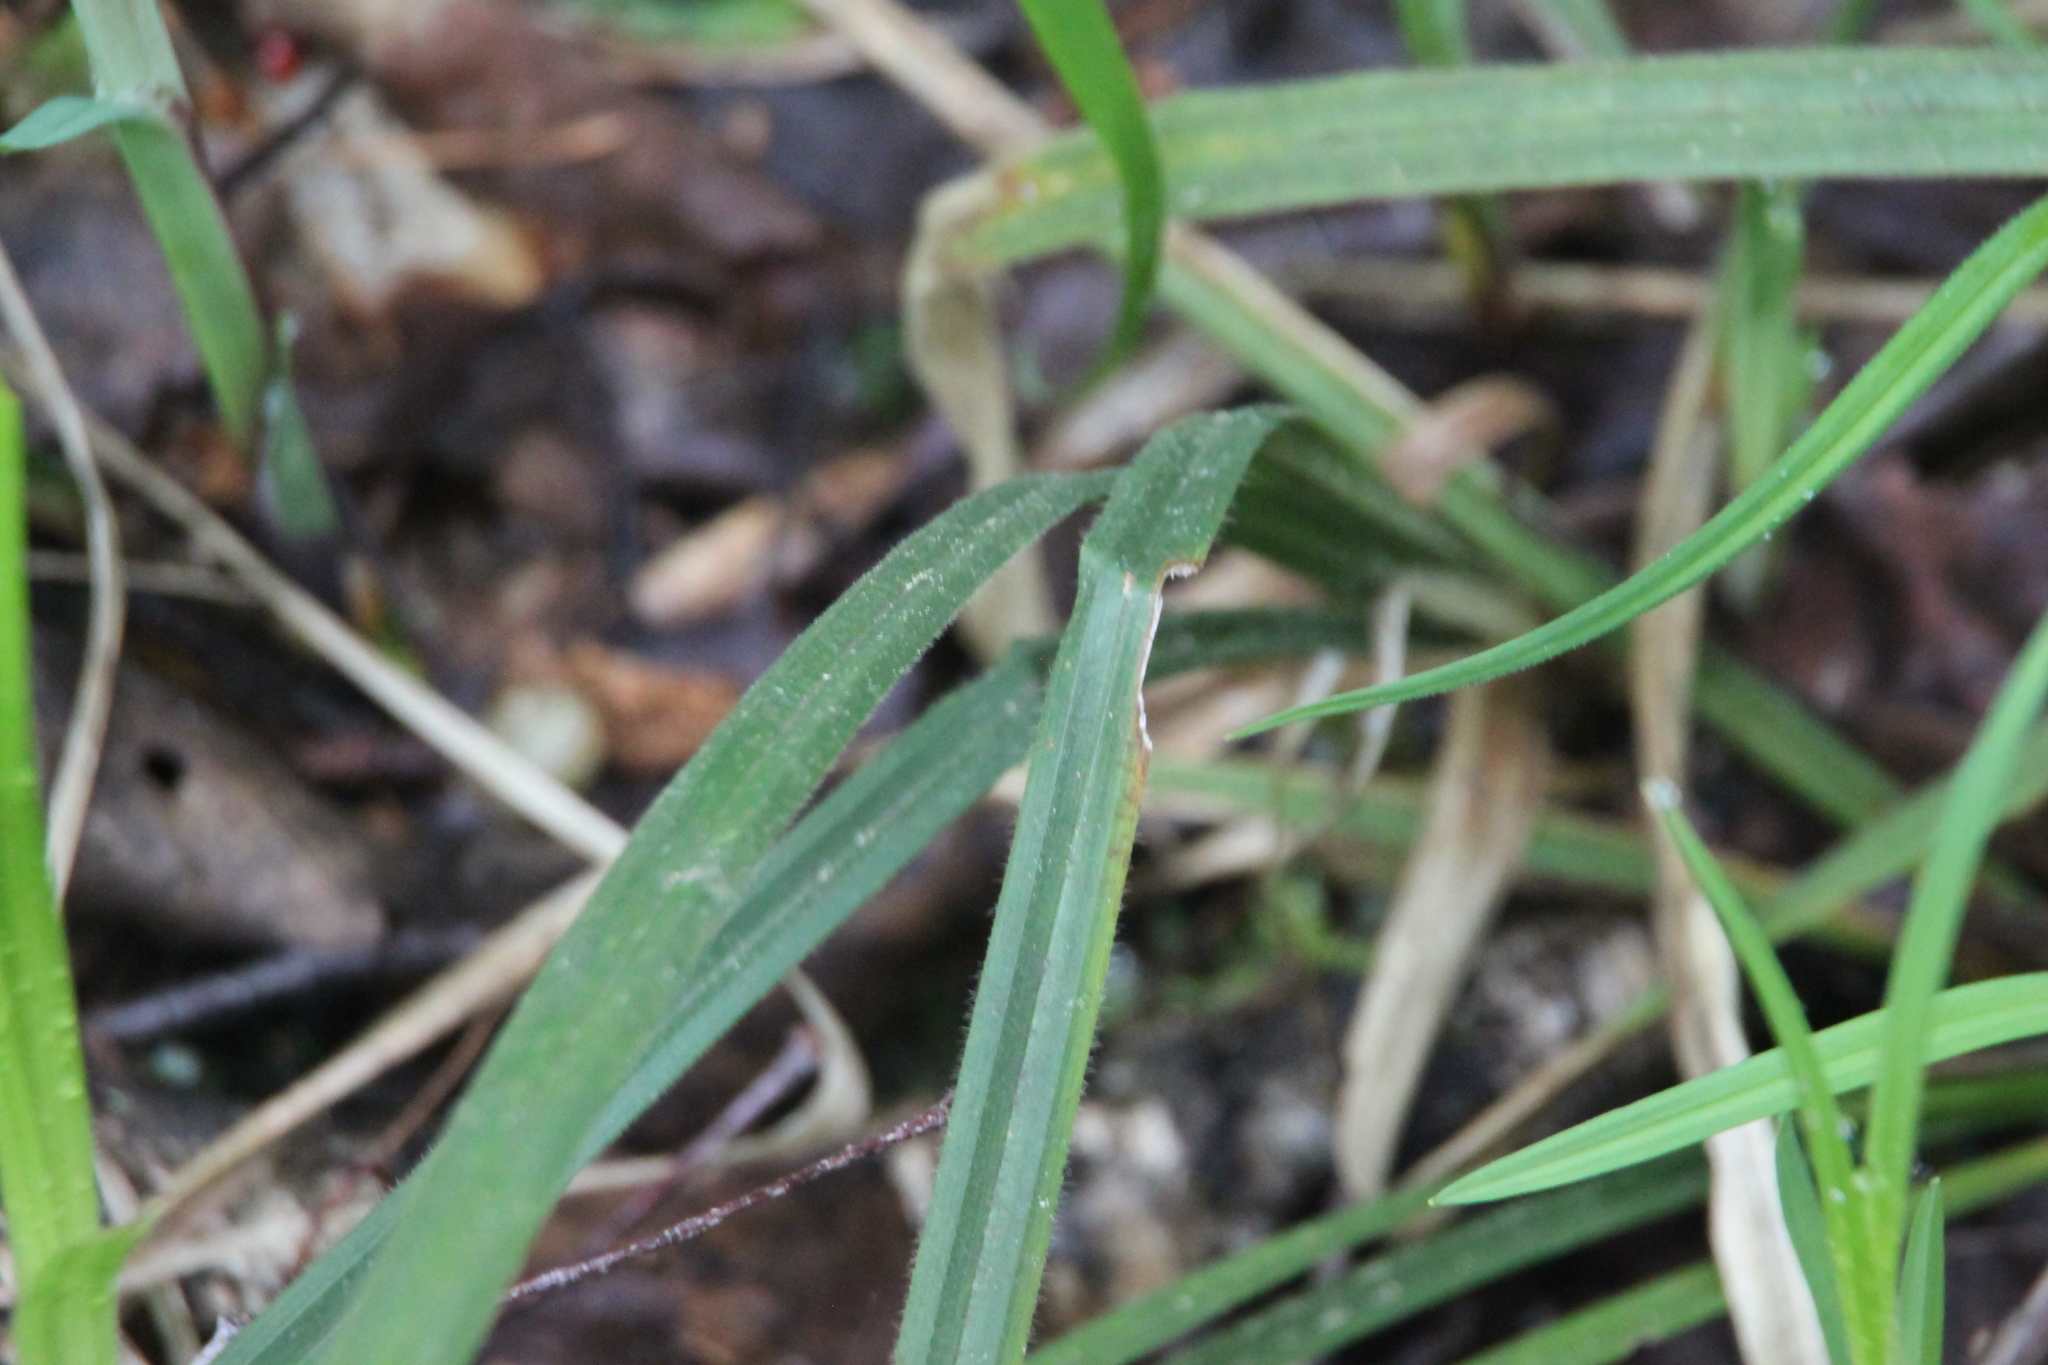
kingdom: Plantae
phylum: Tracheophyta
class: Liliopsida
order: Poales
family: Cyperaceae
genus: Carex
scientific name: Carex pilosa
